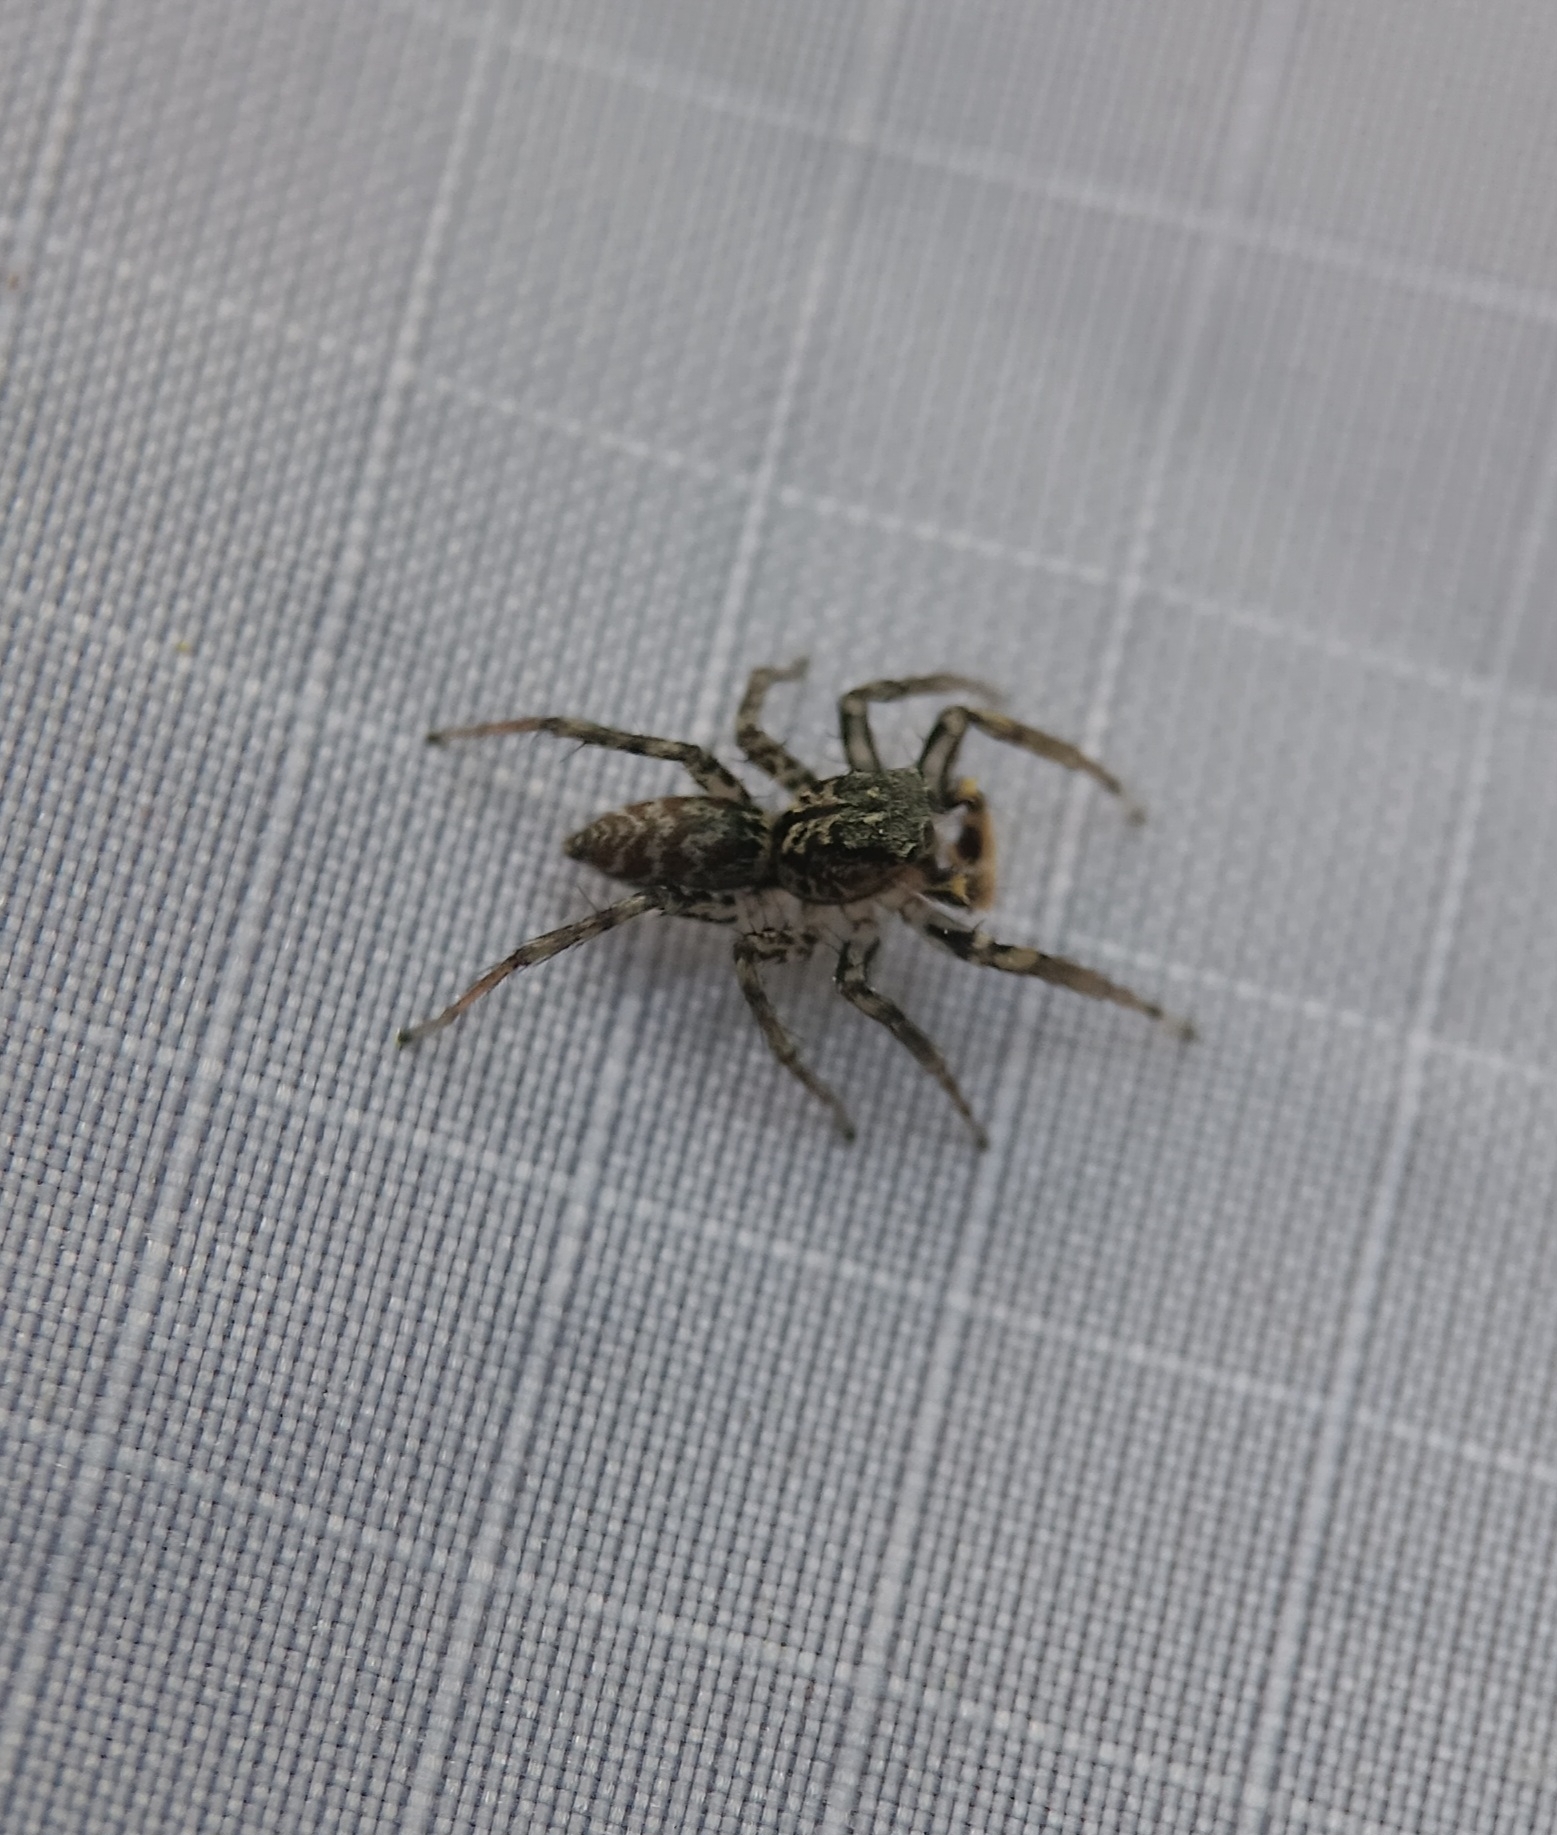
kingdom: Animalia
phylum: Arthropoda
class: Arachnida
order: Araneae
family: Salticidae
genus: Maevia
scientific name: Maevia inclemens
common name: Dimorphic jumper
